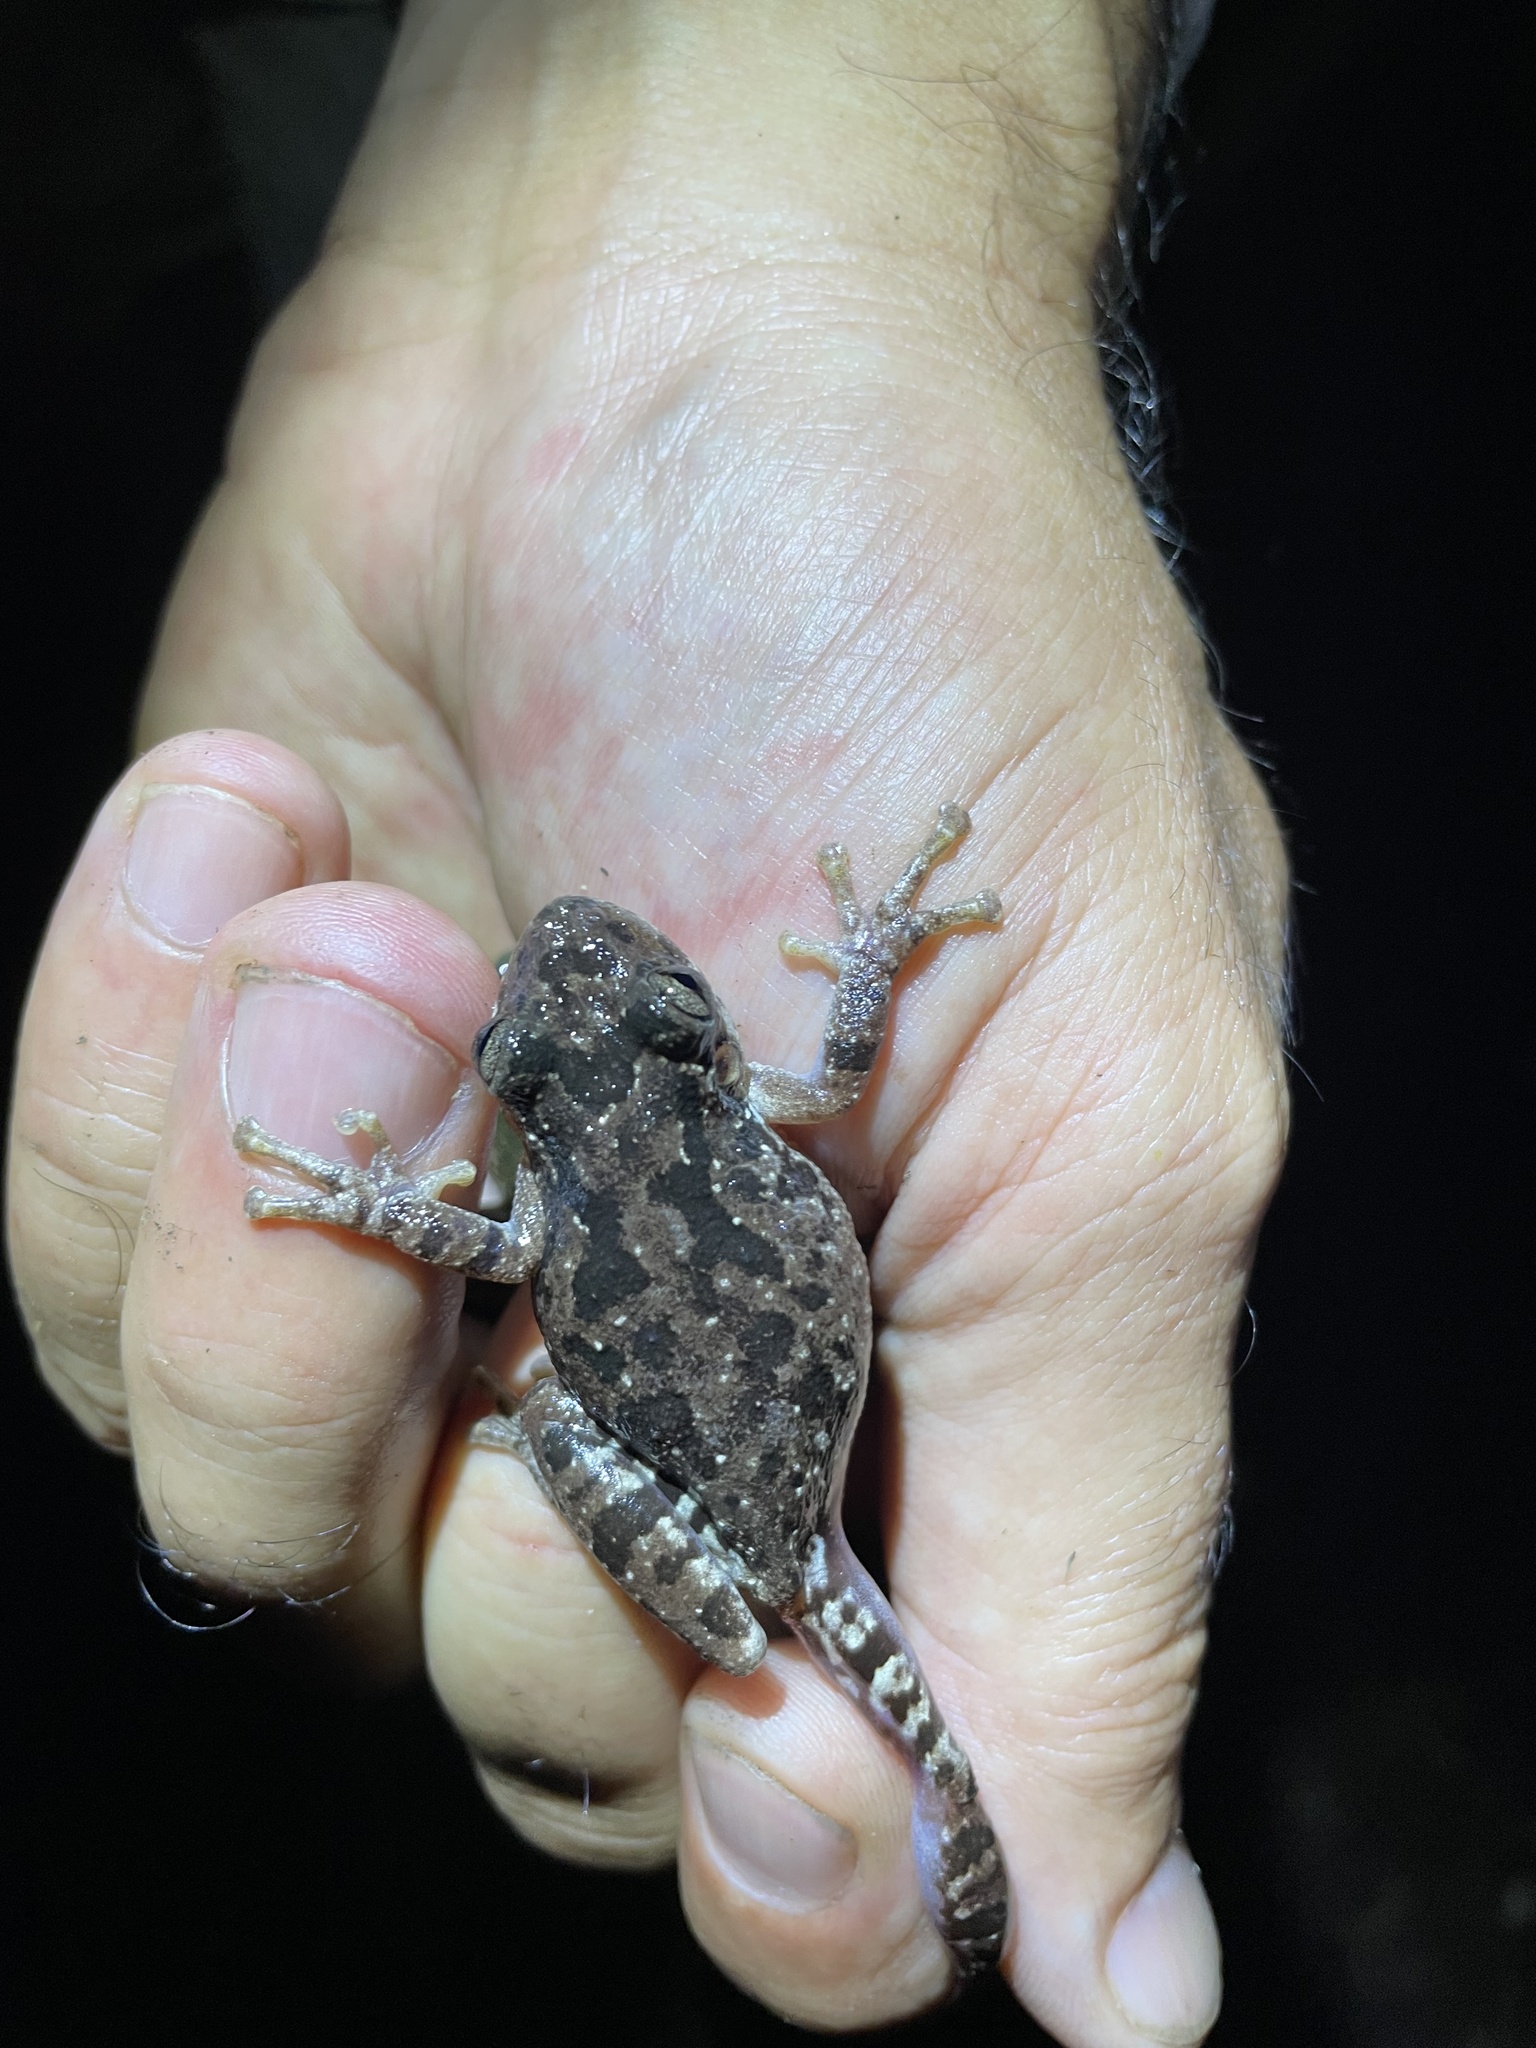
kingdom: Animalia
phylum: Chordata
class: Amphibia
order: Anura
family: Hylidae
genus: Scinax
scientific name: Scinax granulatus
